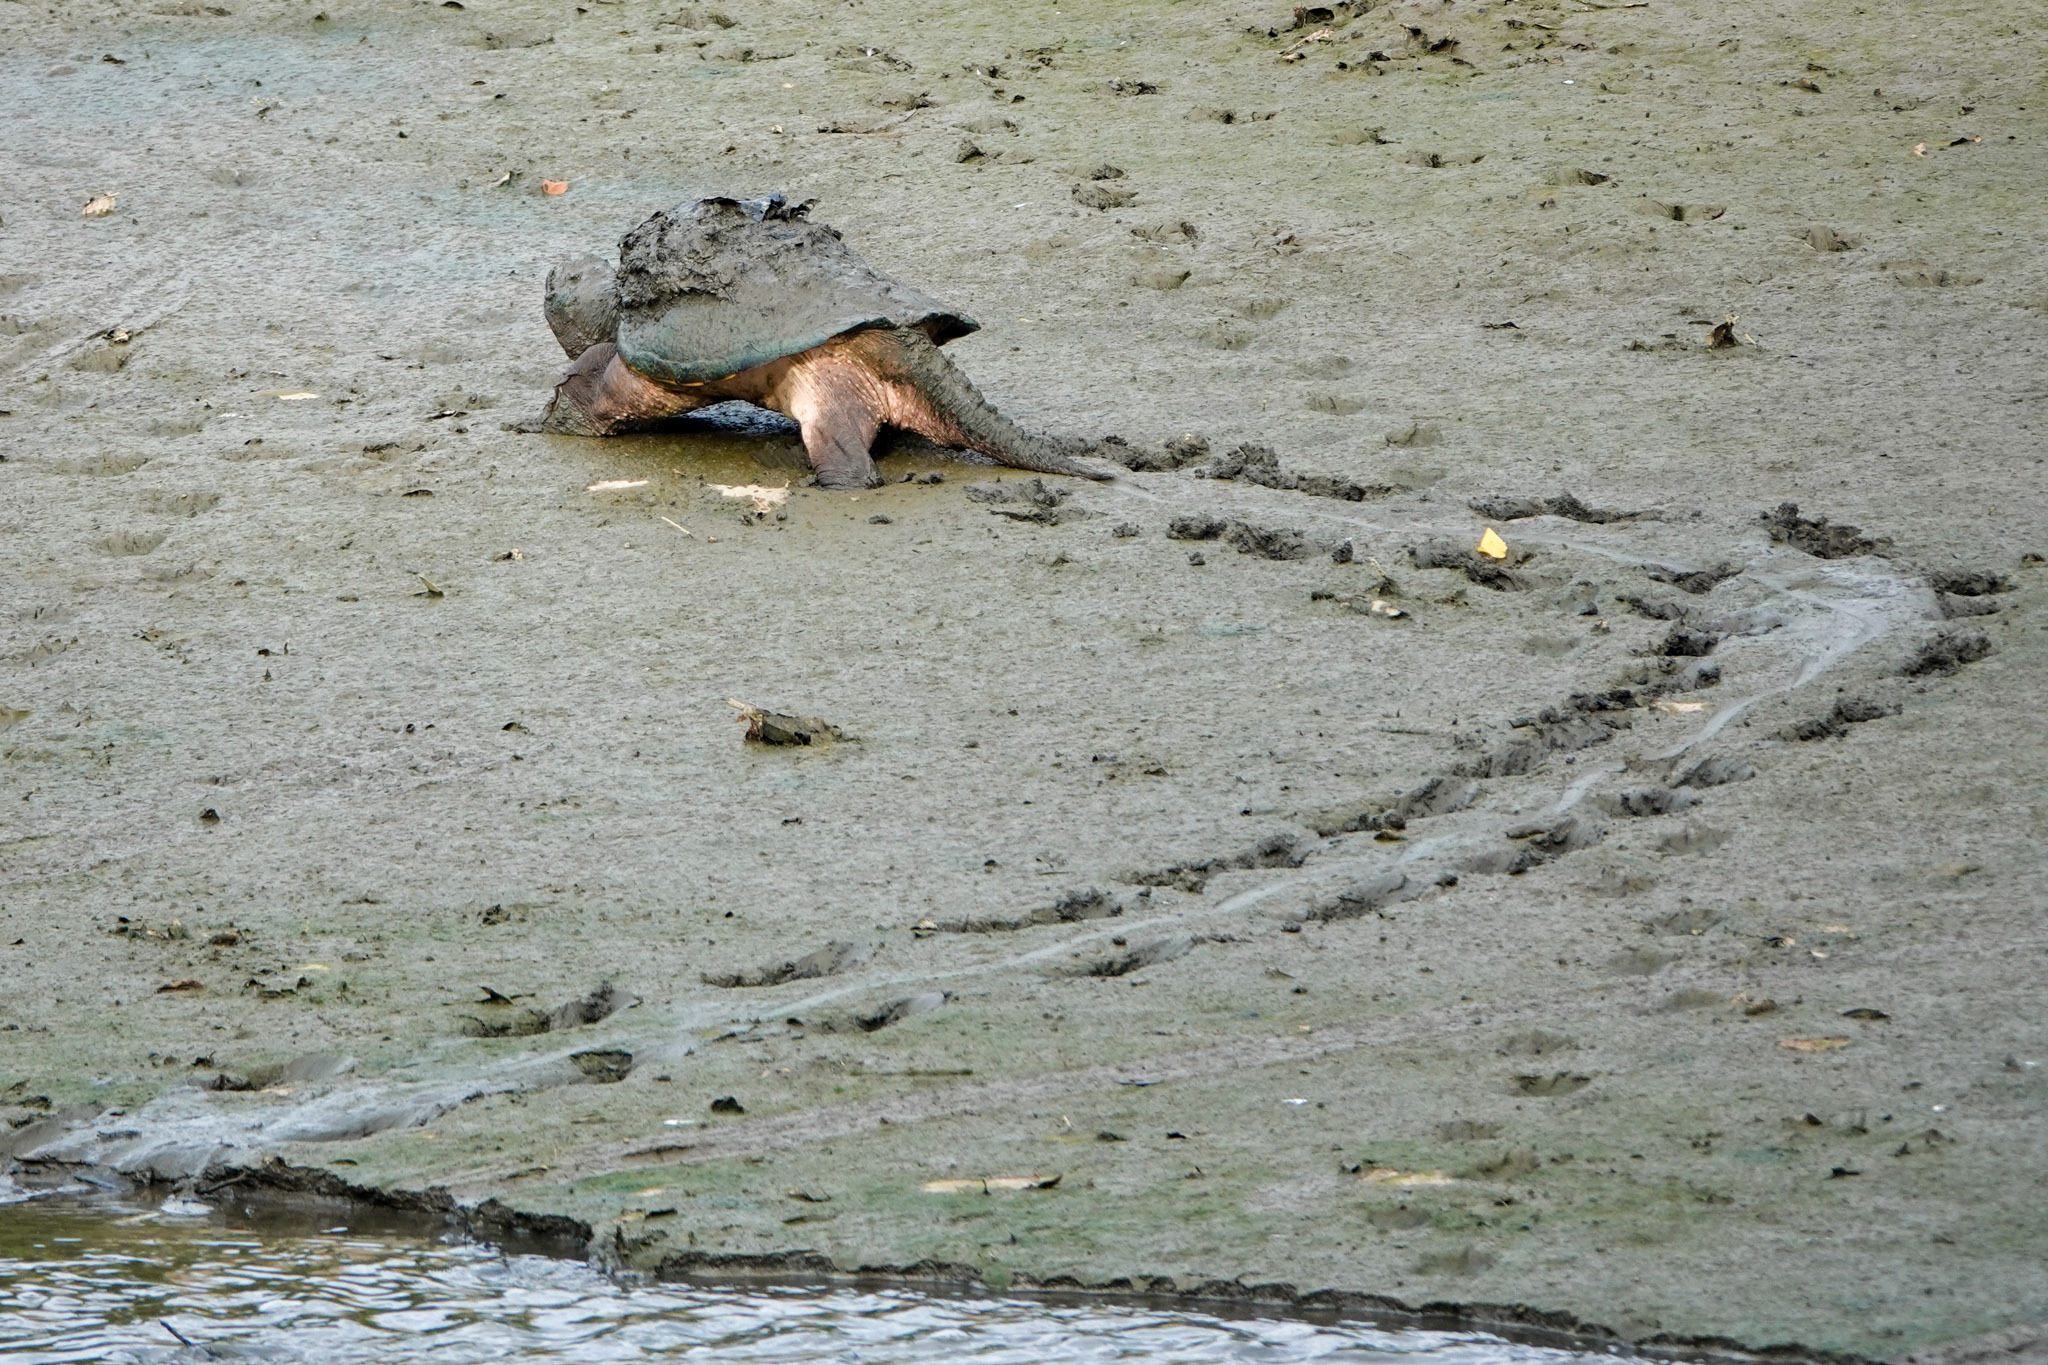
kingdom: Animalia
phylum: Chordata
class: Testudines
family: Chelydridae
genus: Chelydra
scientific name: Chelydra serpentina
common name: Common snapping turtle
